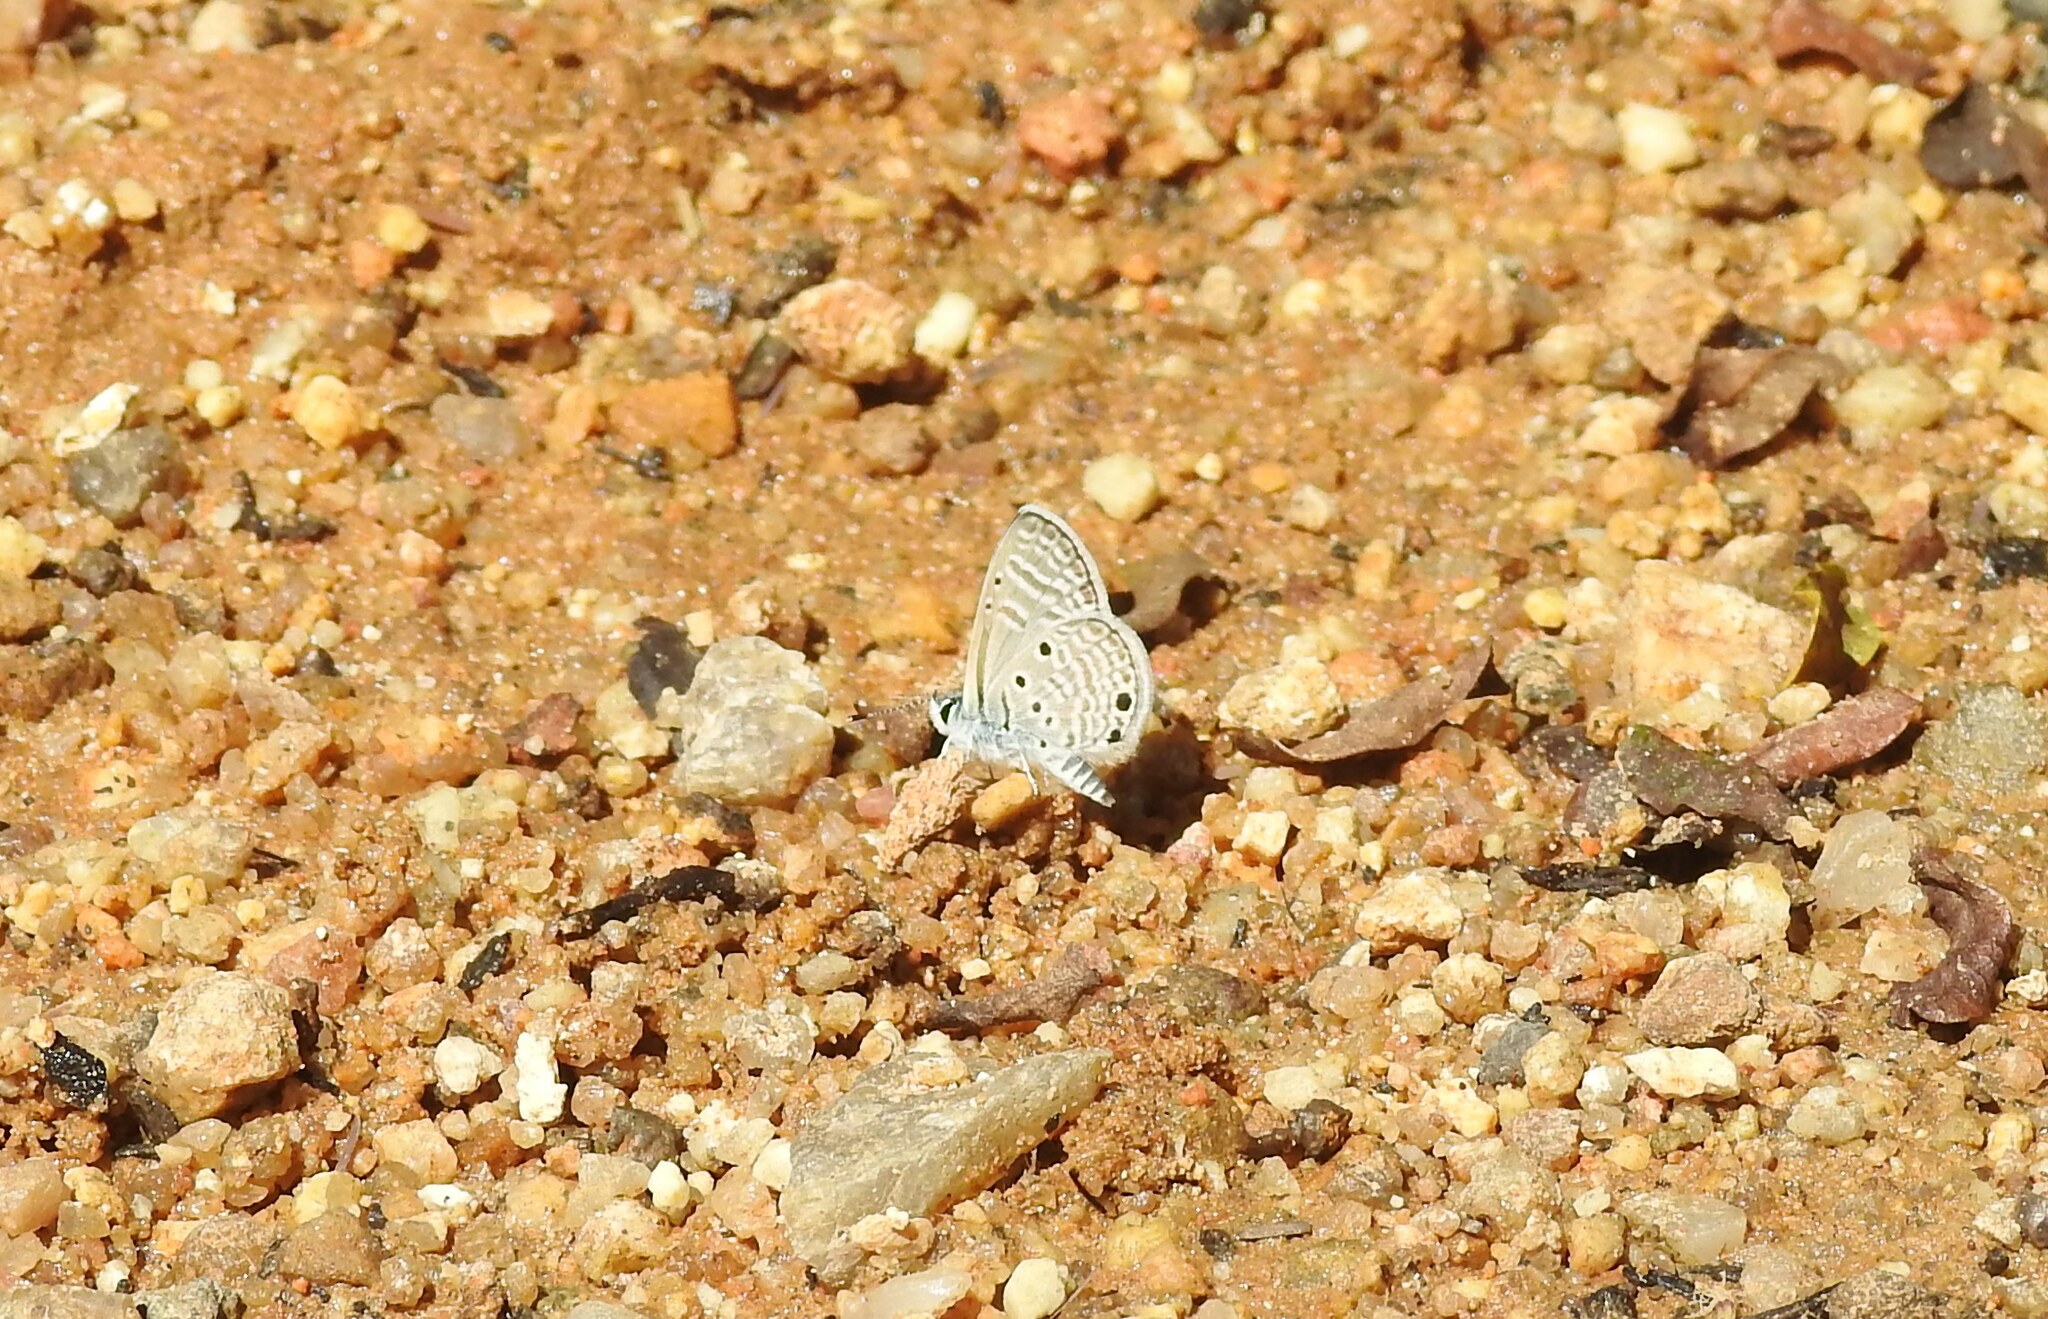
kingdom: Animalia
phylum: Arthropoda
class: Insecta
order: Lepidoptera
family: Lycaenidae
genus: Azanus
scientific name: Azanus ubaldus
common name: Desert babul blue
